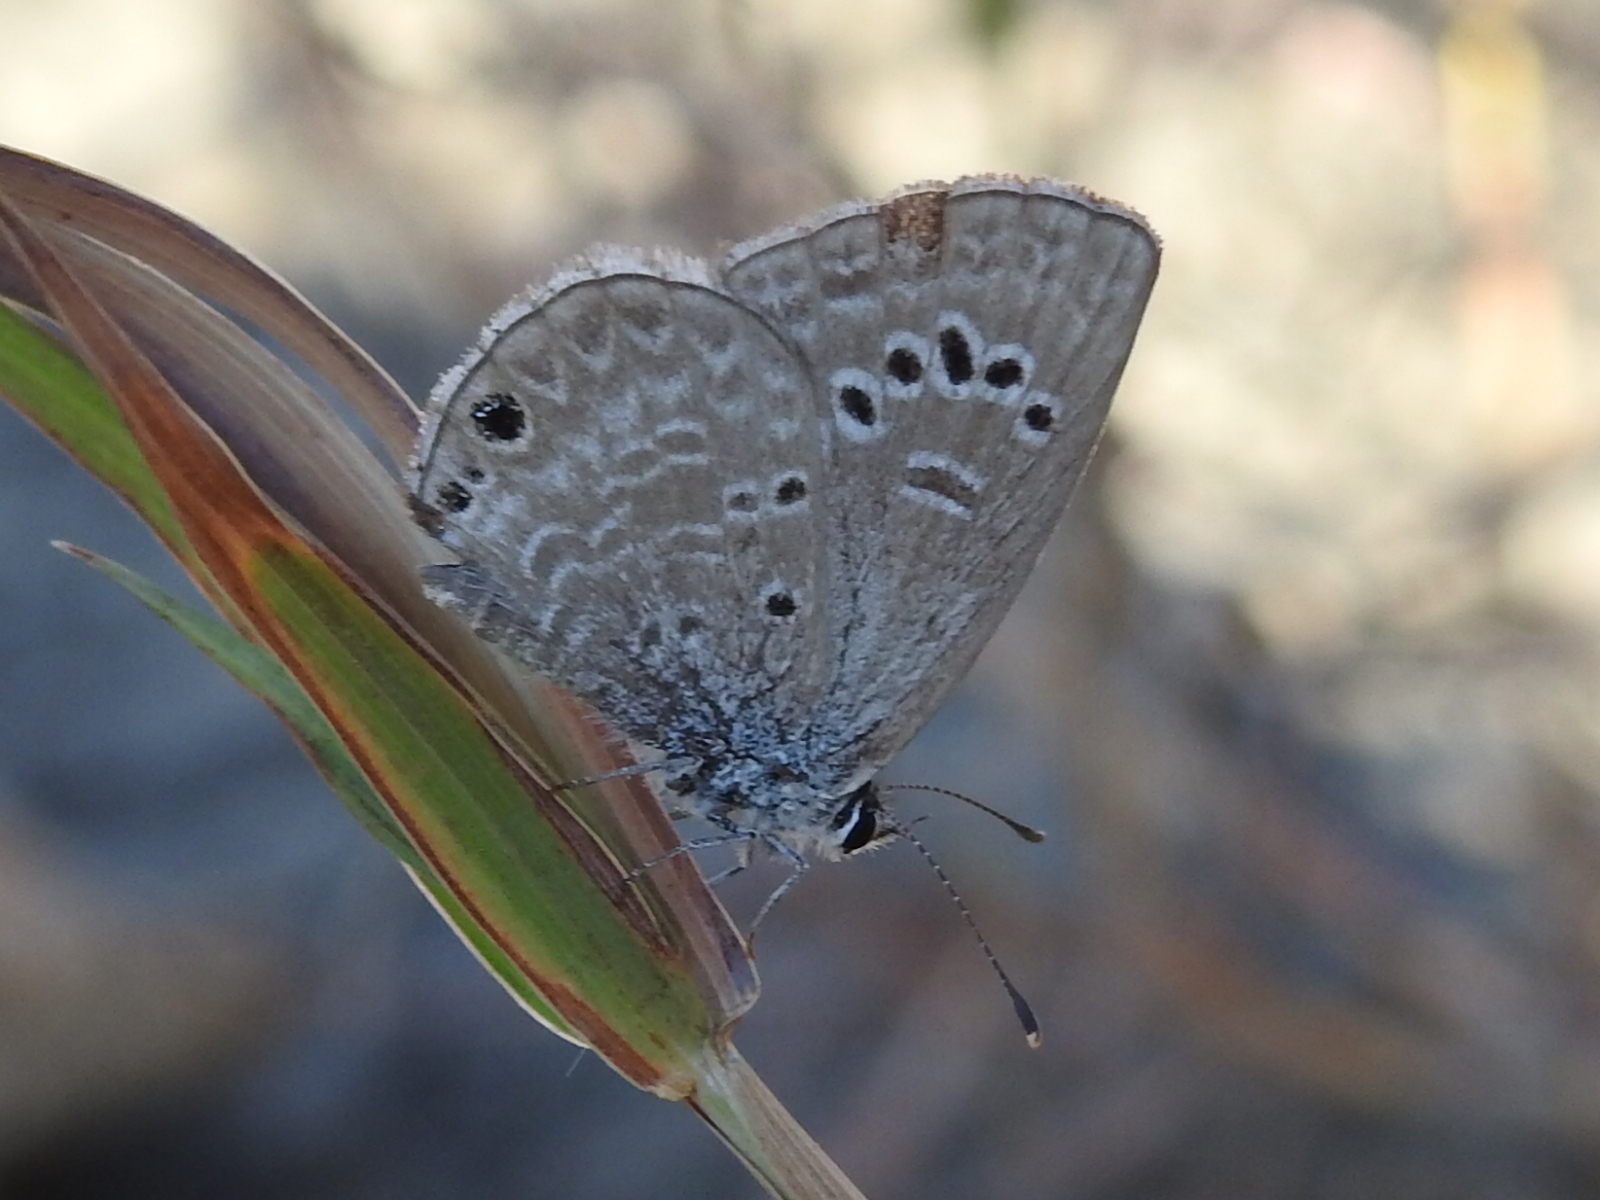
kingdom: Animalia
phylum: Arthropoda
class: Insecta
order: Lepidoptera
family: Lycaenidae
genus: Echinargus
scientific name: Echinargus isola
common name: Reakirt's blue
